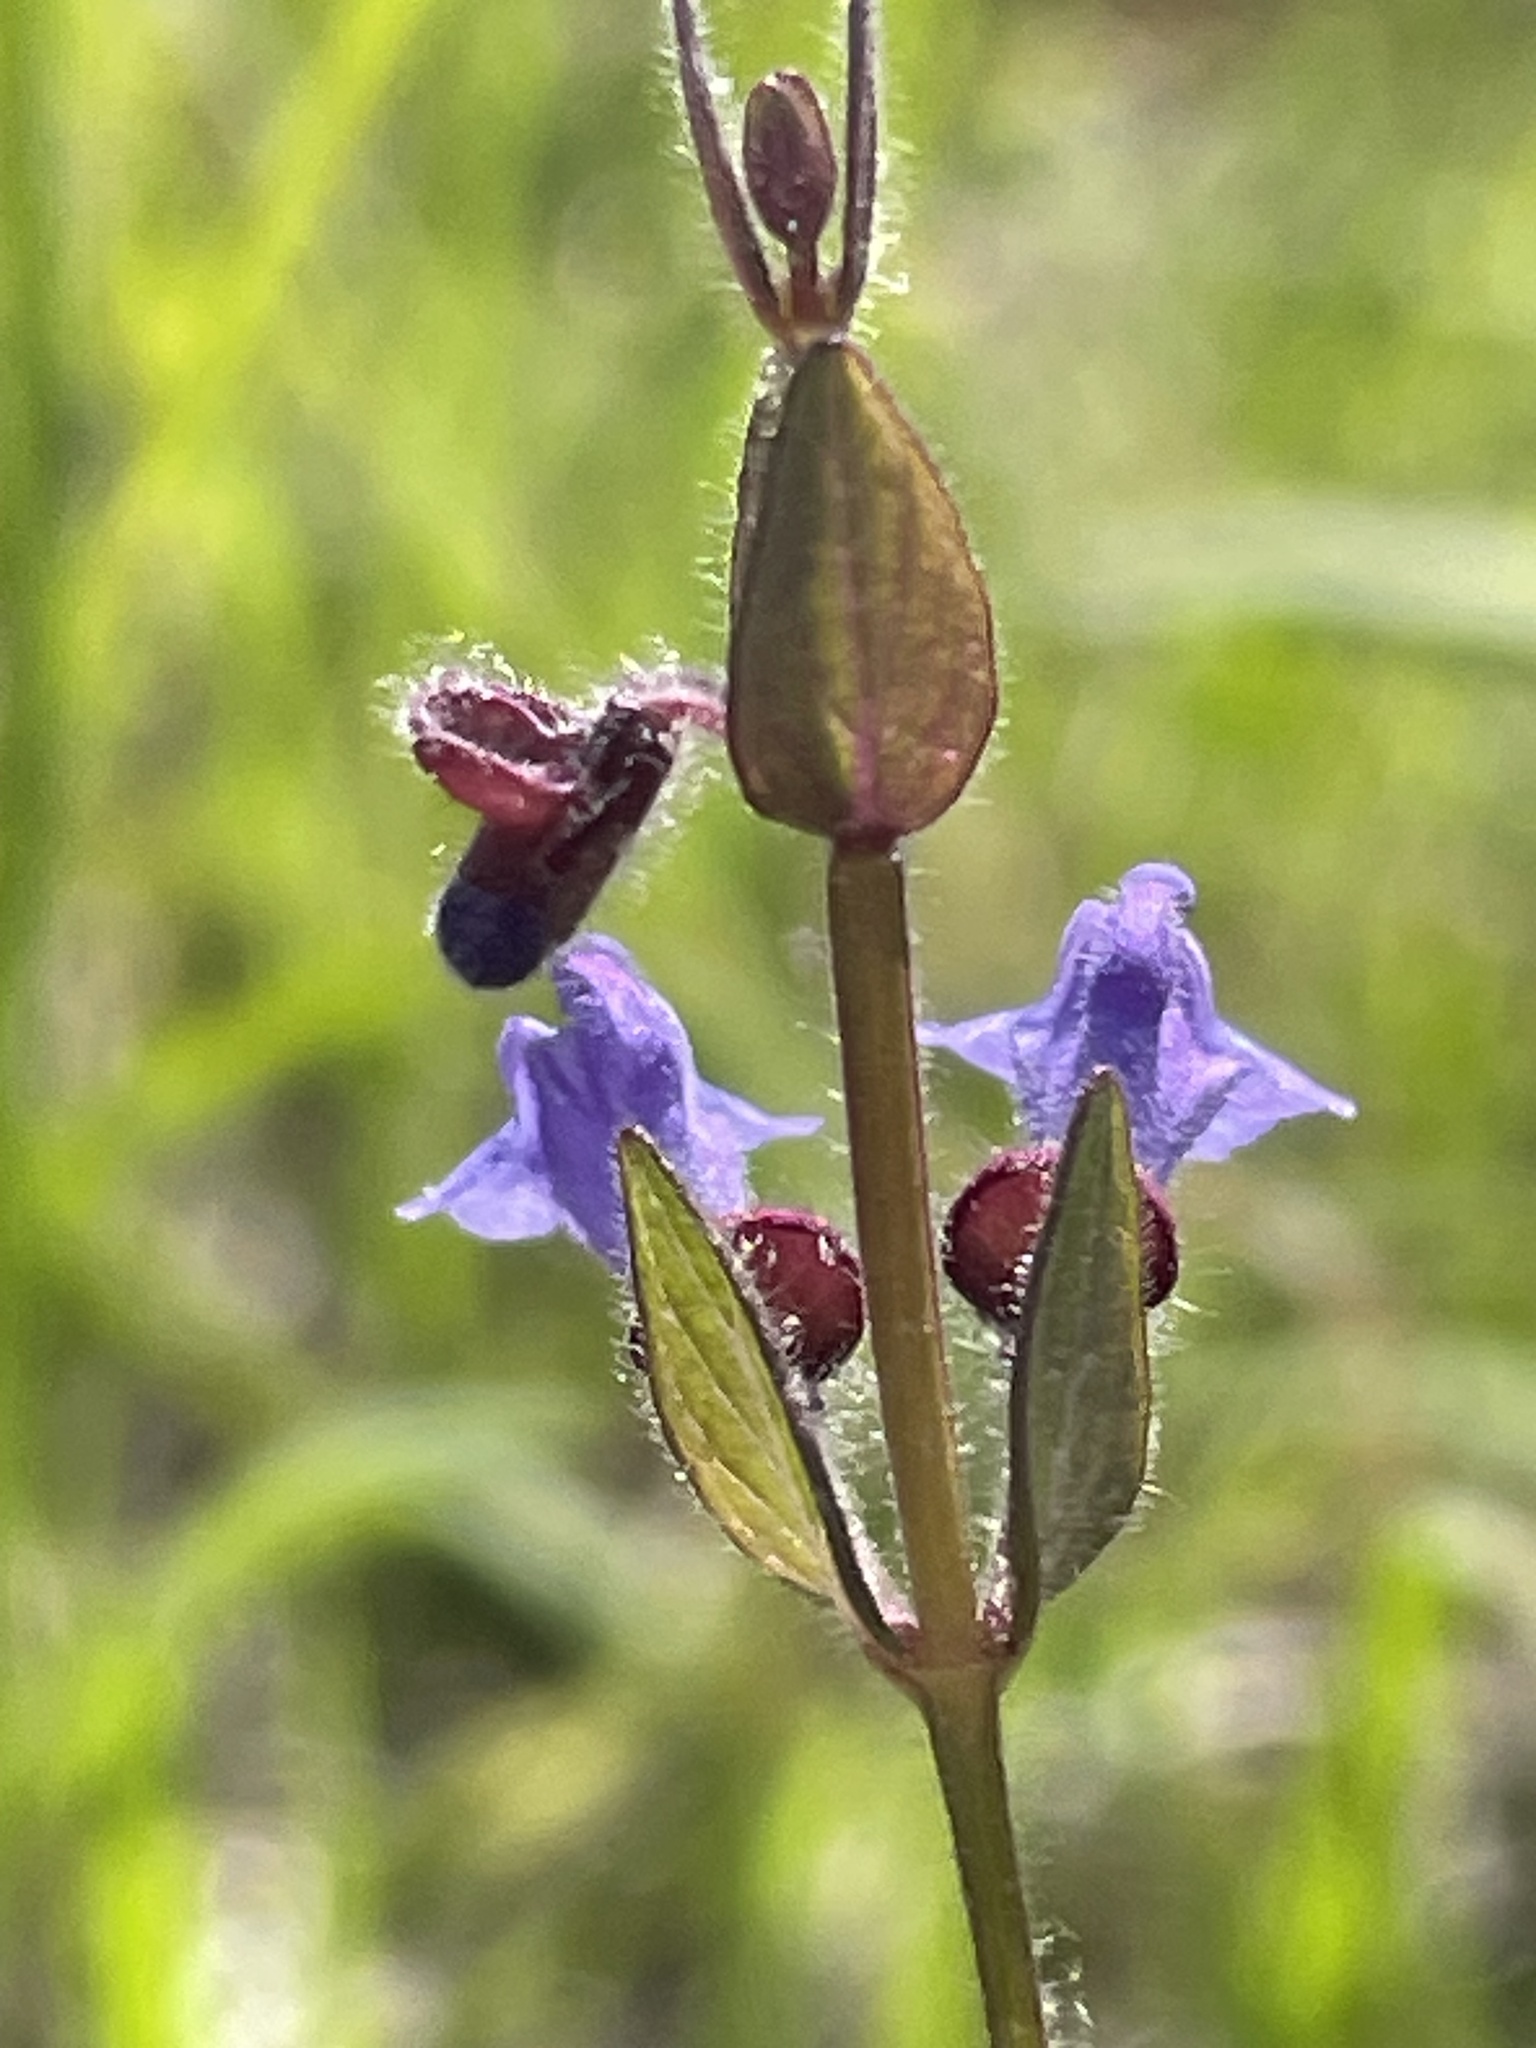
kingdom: Plantae
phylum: Tracheophyta
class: Magnoliopsida
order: Lamiales
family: Lamiaceae
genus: Scutellaria
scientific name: Scutellaria parvula
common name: Little scullcap
